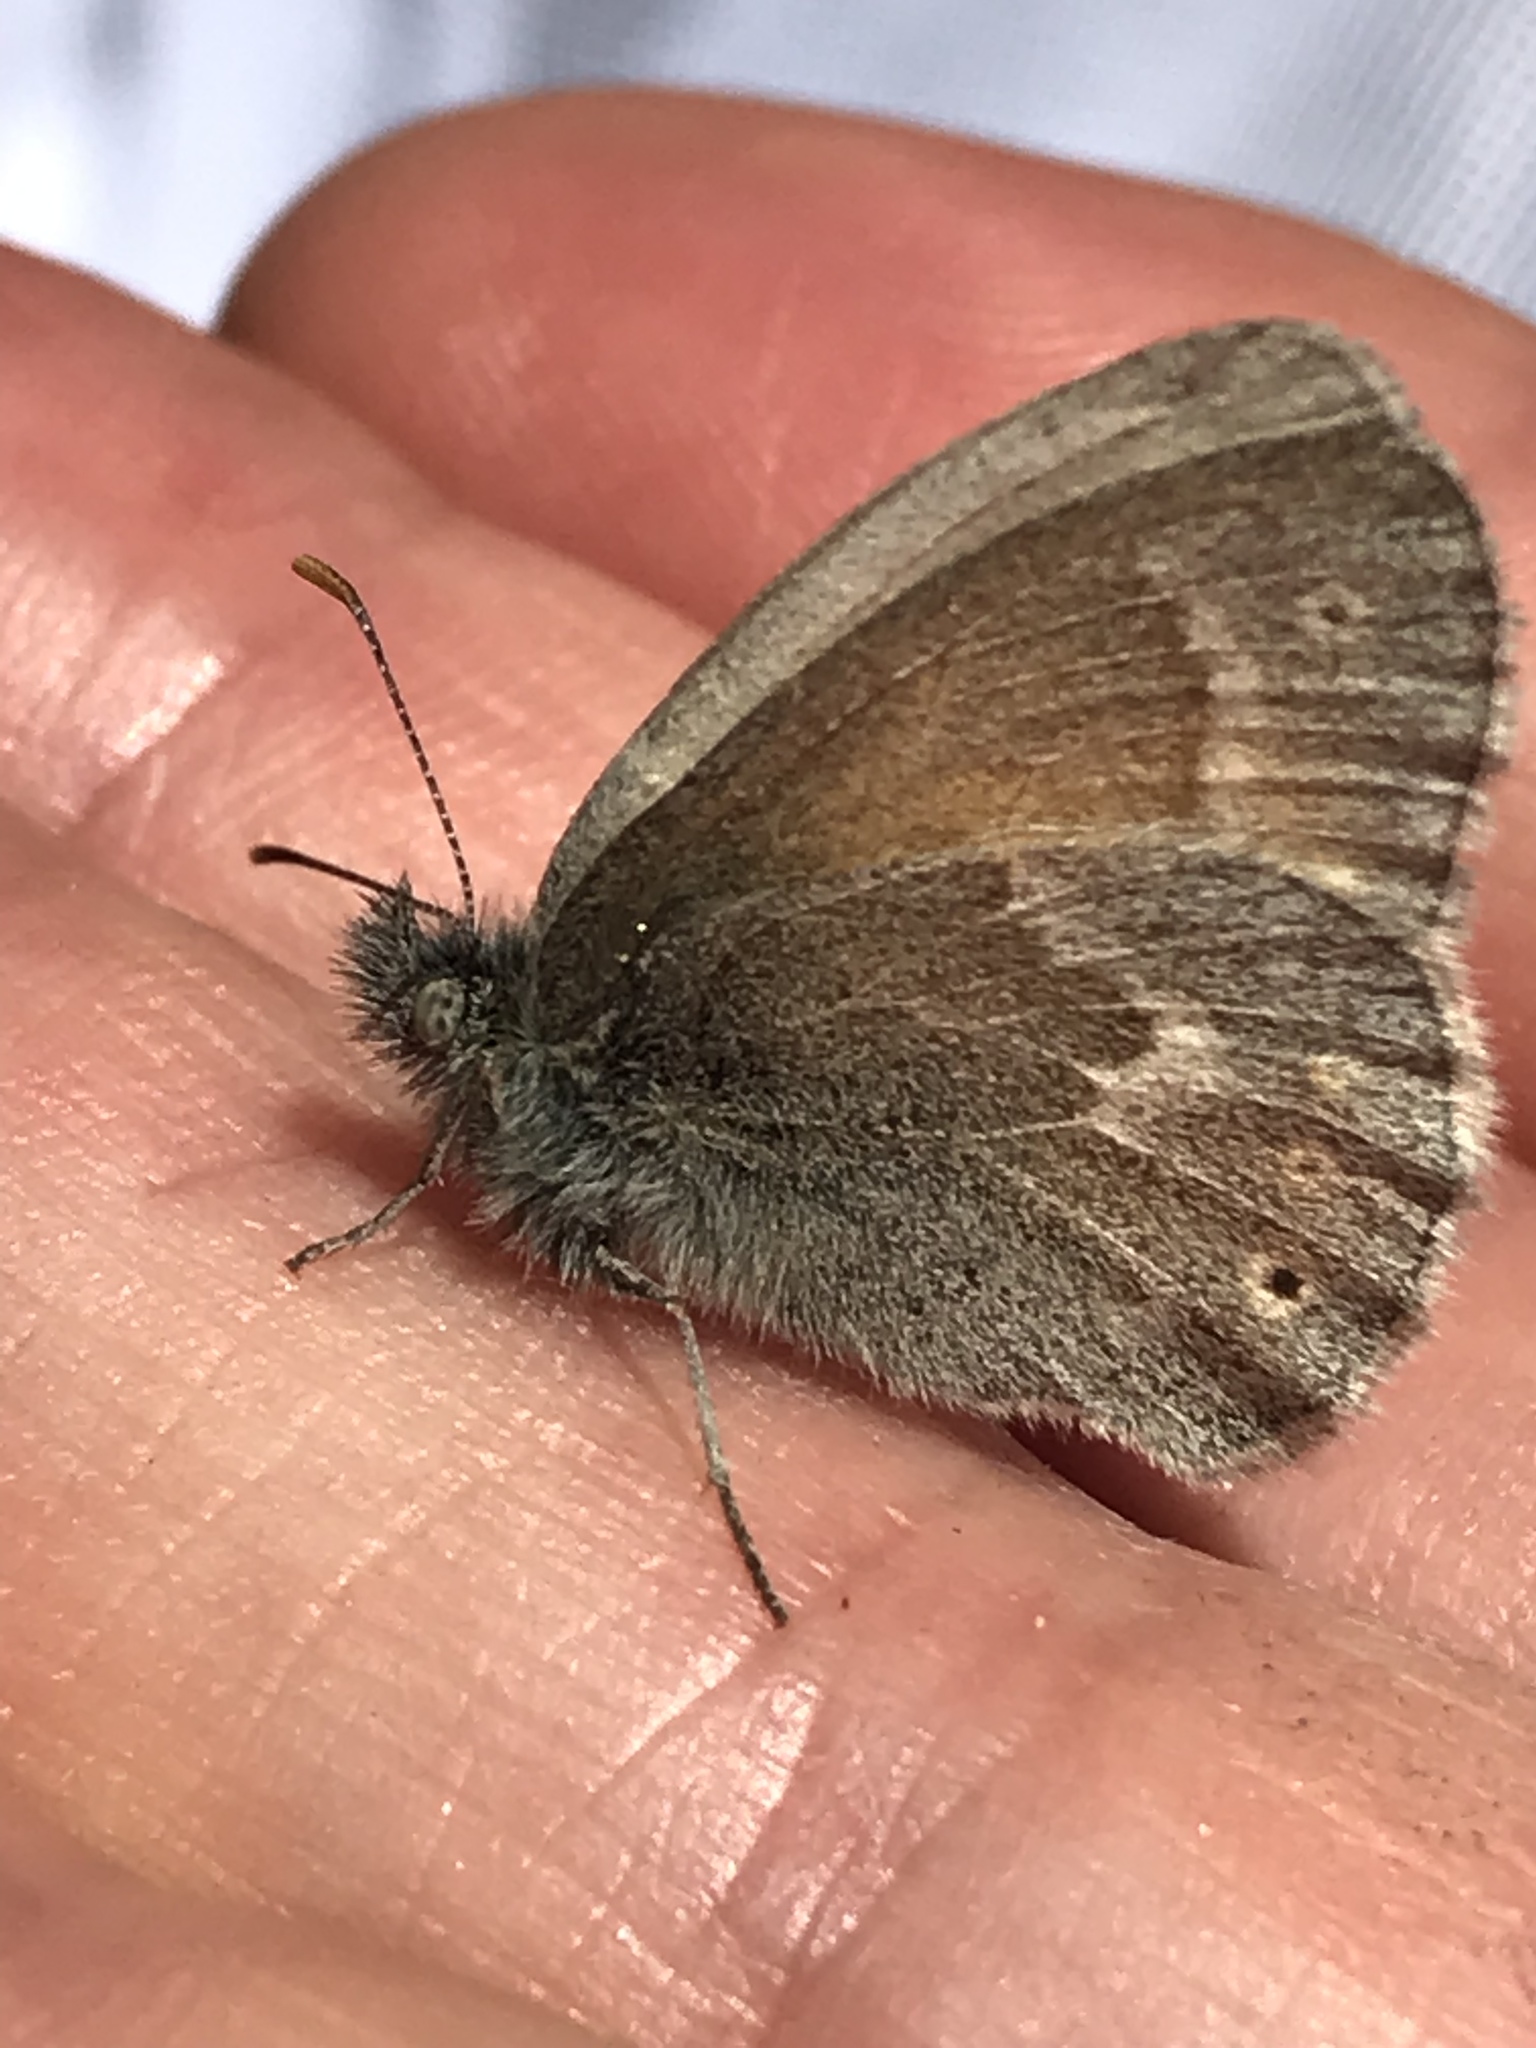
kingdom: Animalia
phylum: Arthropoda
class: Insecta
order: Lepidoptera
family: Nymphalidae
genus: Coenonympha
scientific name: Coenonympha california
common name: Common ringlet
